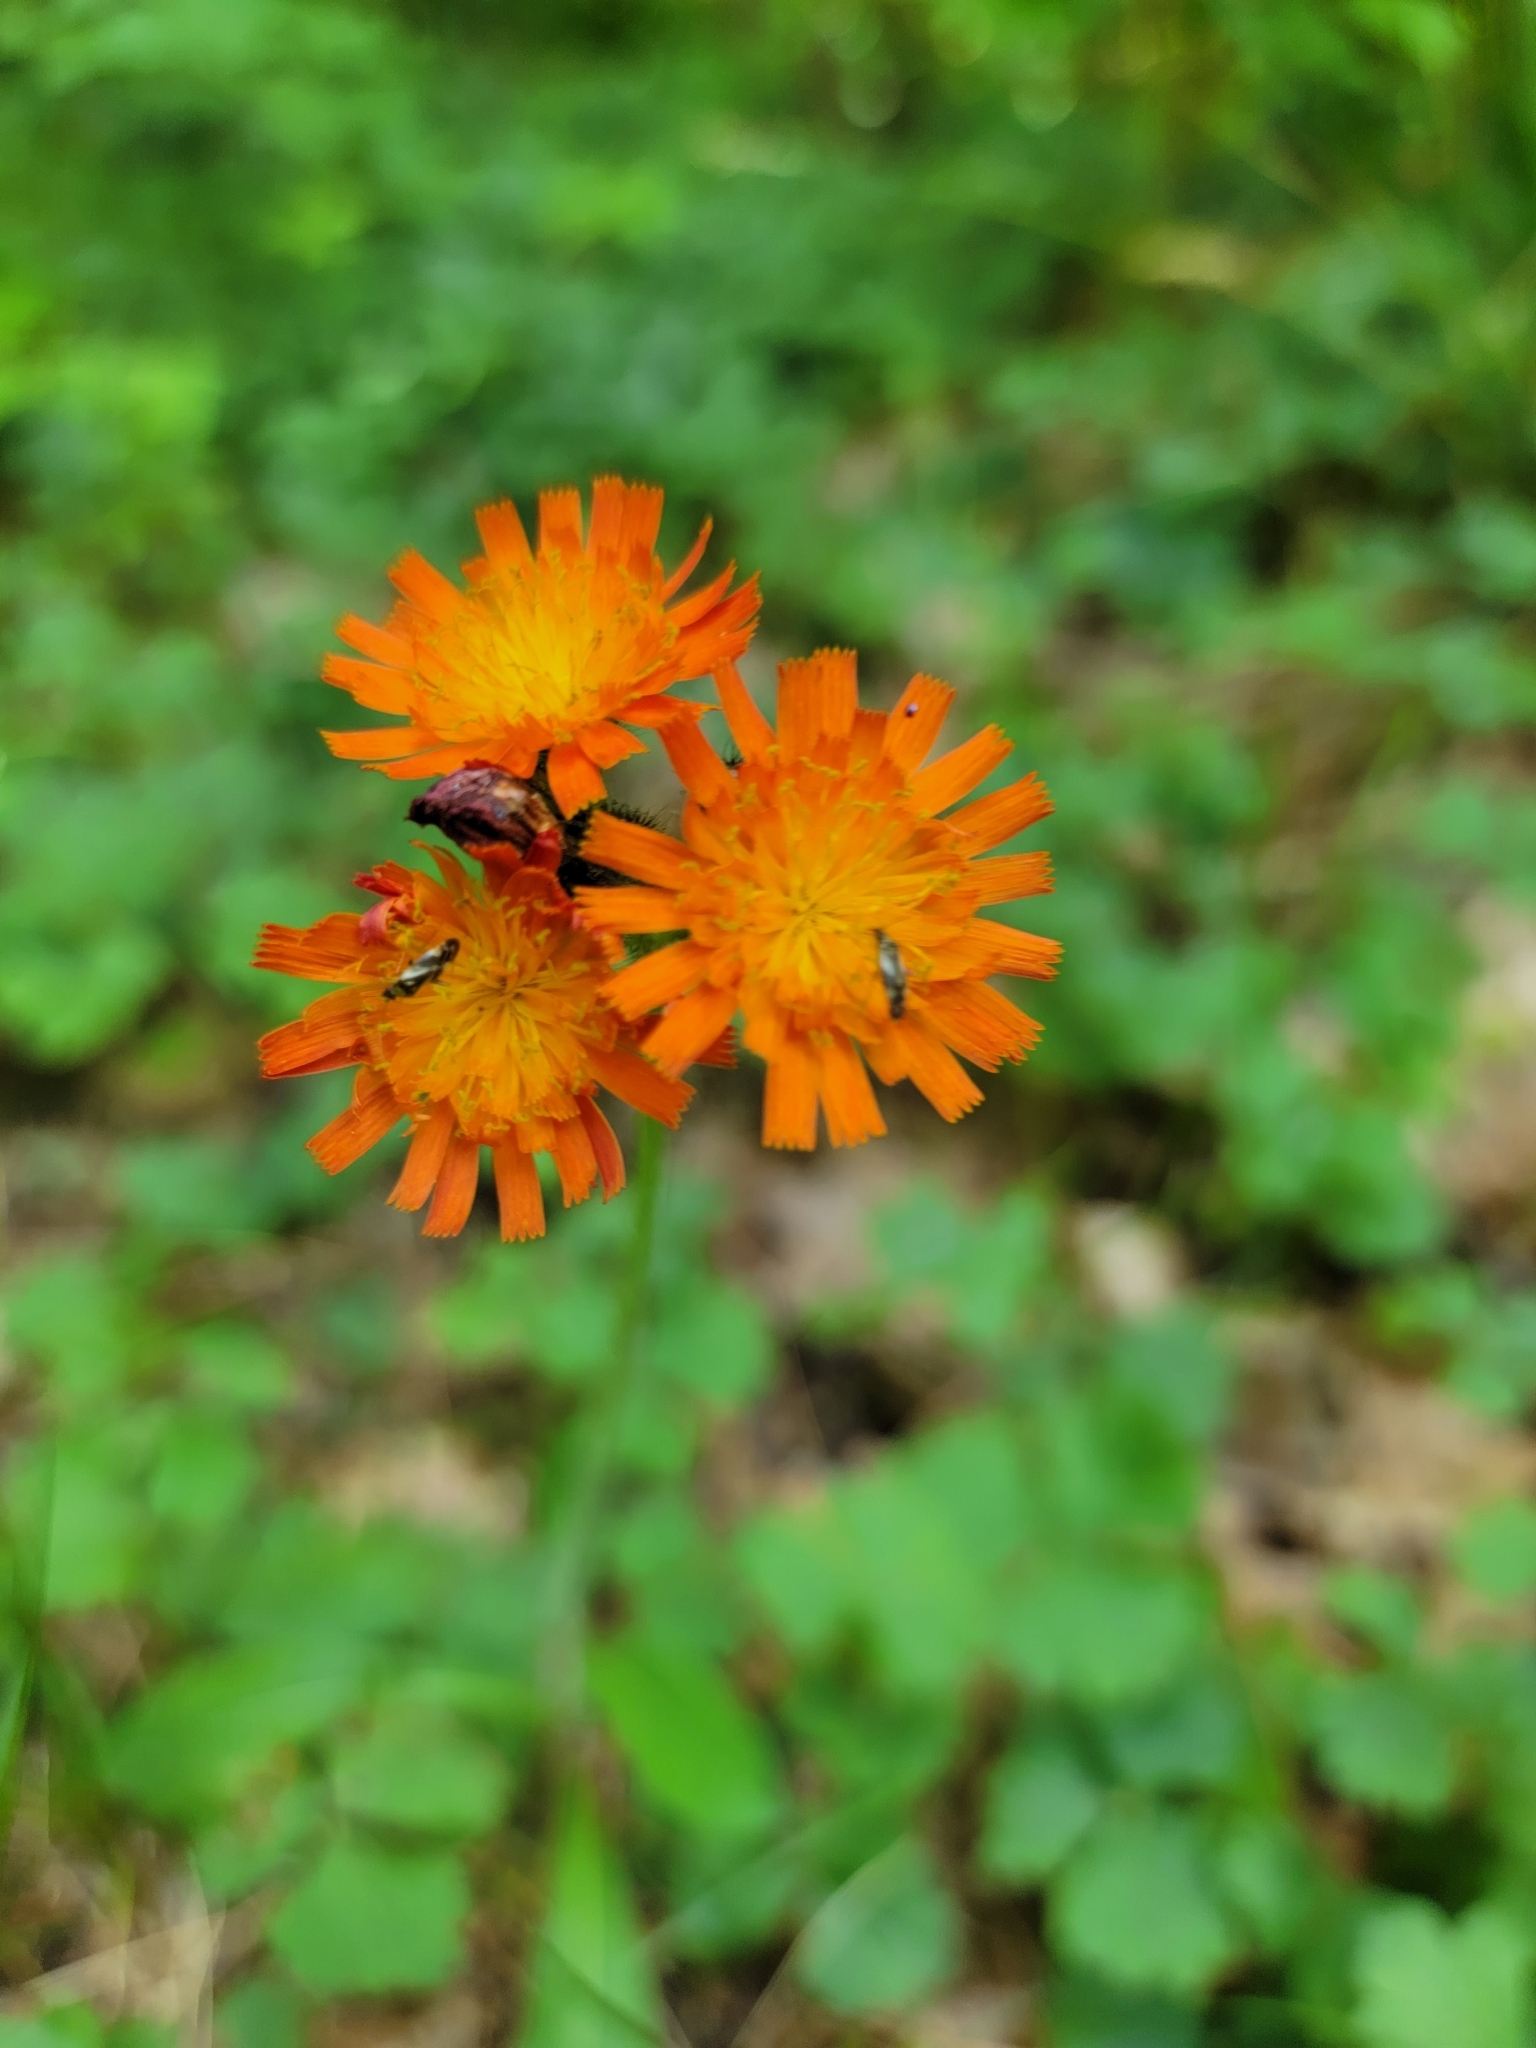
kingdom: Plantae
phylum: Tracheophyta
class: Magnoliopsida
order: Asterales
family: Asteraceae
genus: Pilosella
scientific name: Pilosella aurantiaca
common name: Fox-and-cubs
